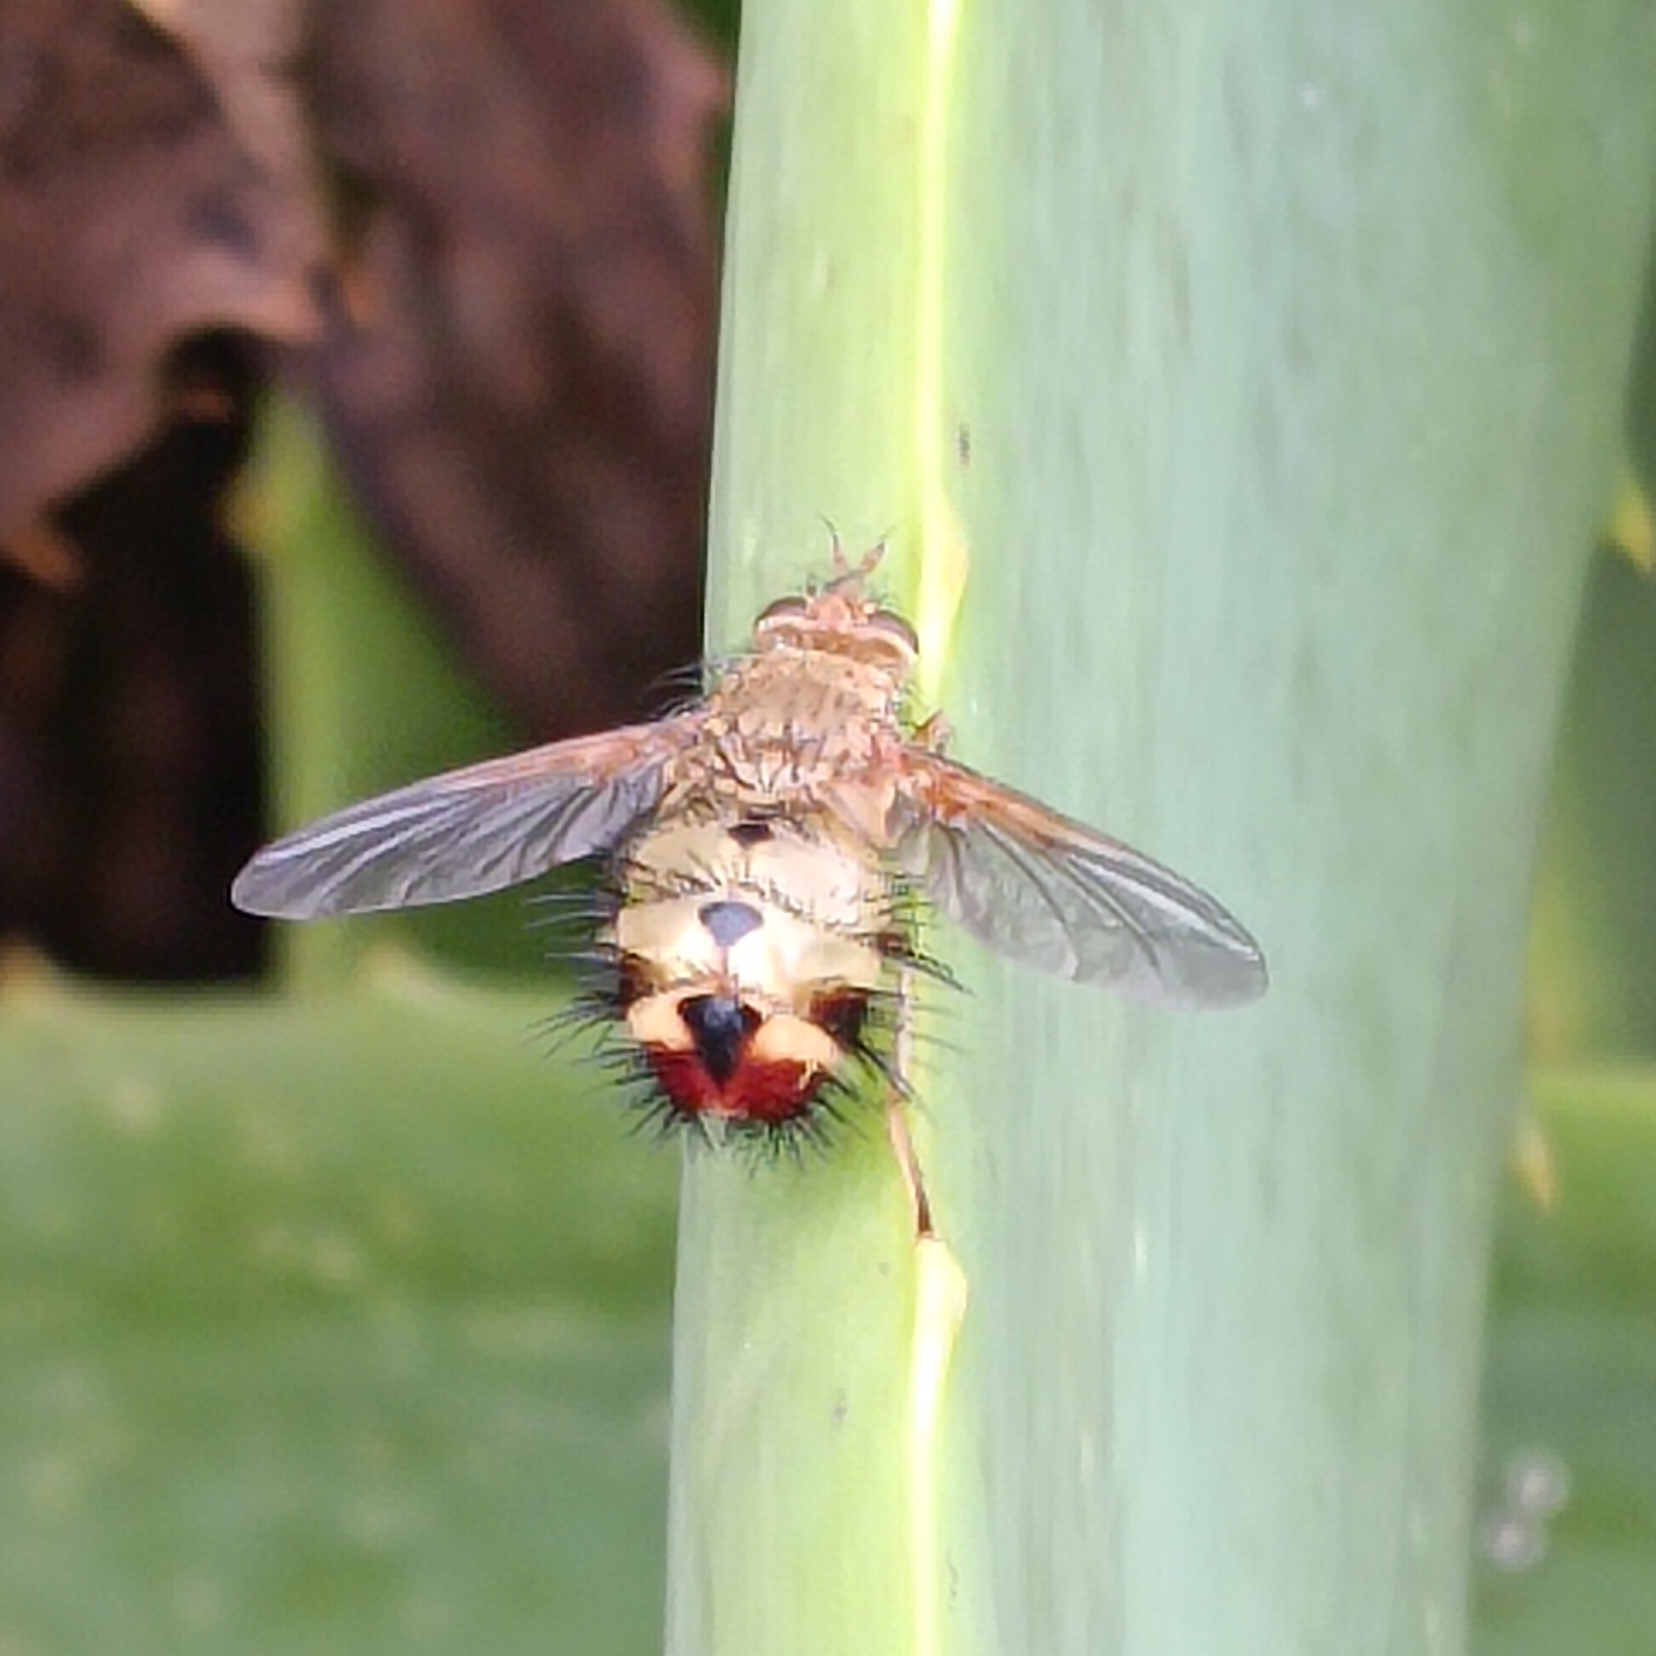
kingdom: Animalia
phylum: Arthropoda
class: Insecta
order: Diptera
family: Tachinidae
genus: Dejeania
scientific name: Dejeania bombylans
